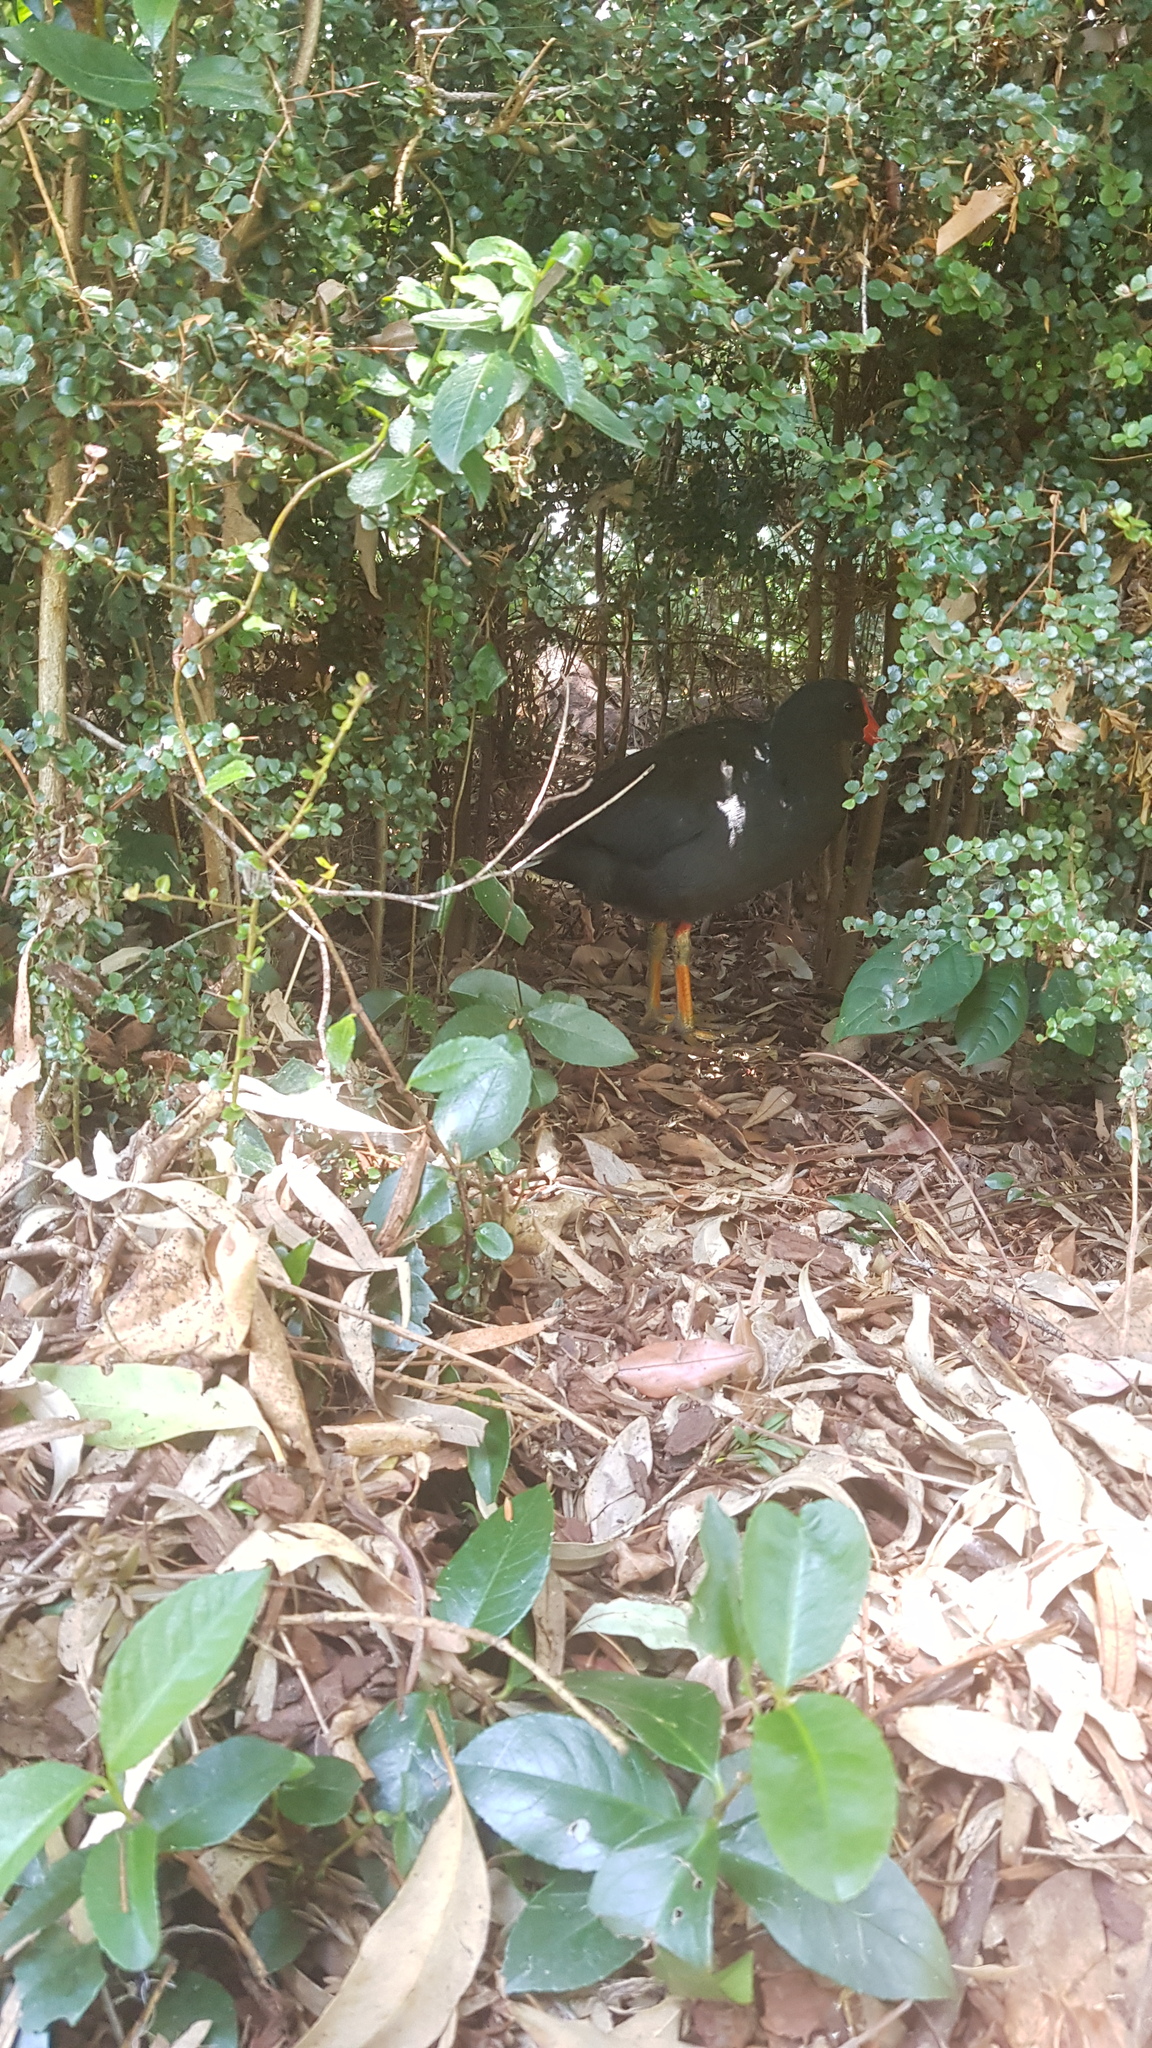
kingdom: Animalia
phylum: Chordata
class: Aves
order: Gruiformes
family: Rallidae
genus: Gallinula
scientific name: Gallinula tenebrosa
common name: Dusky moorhen
